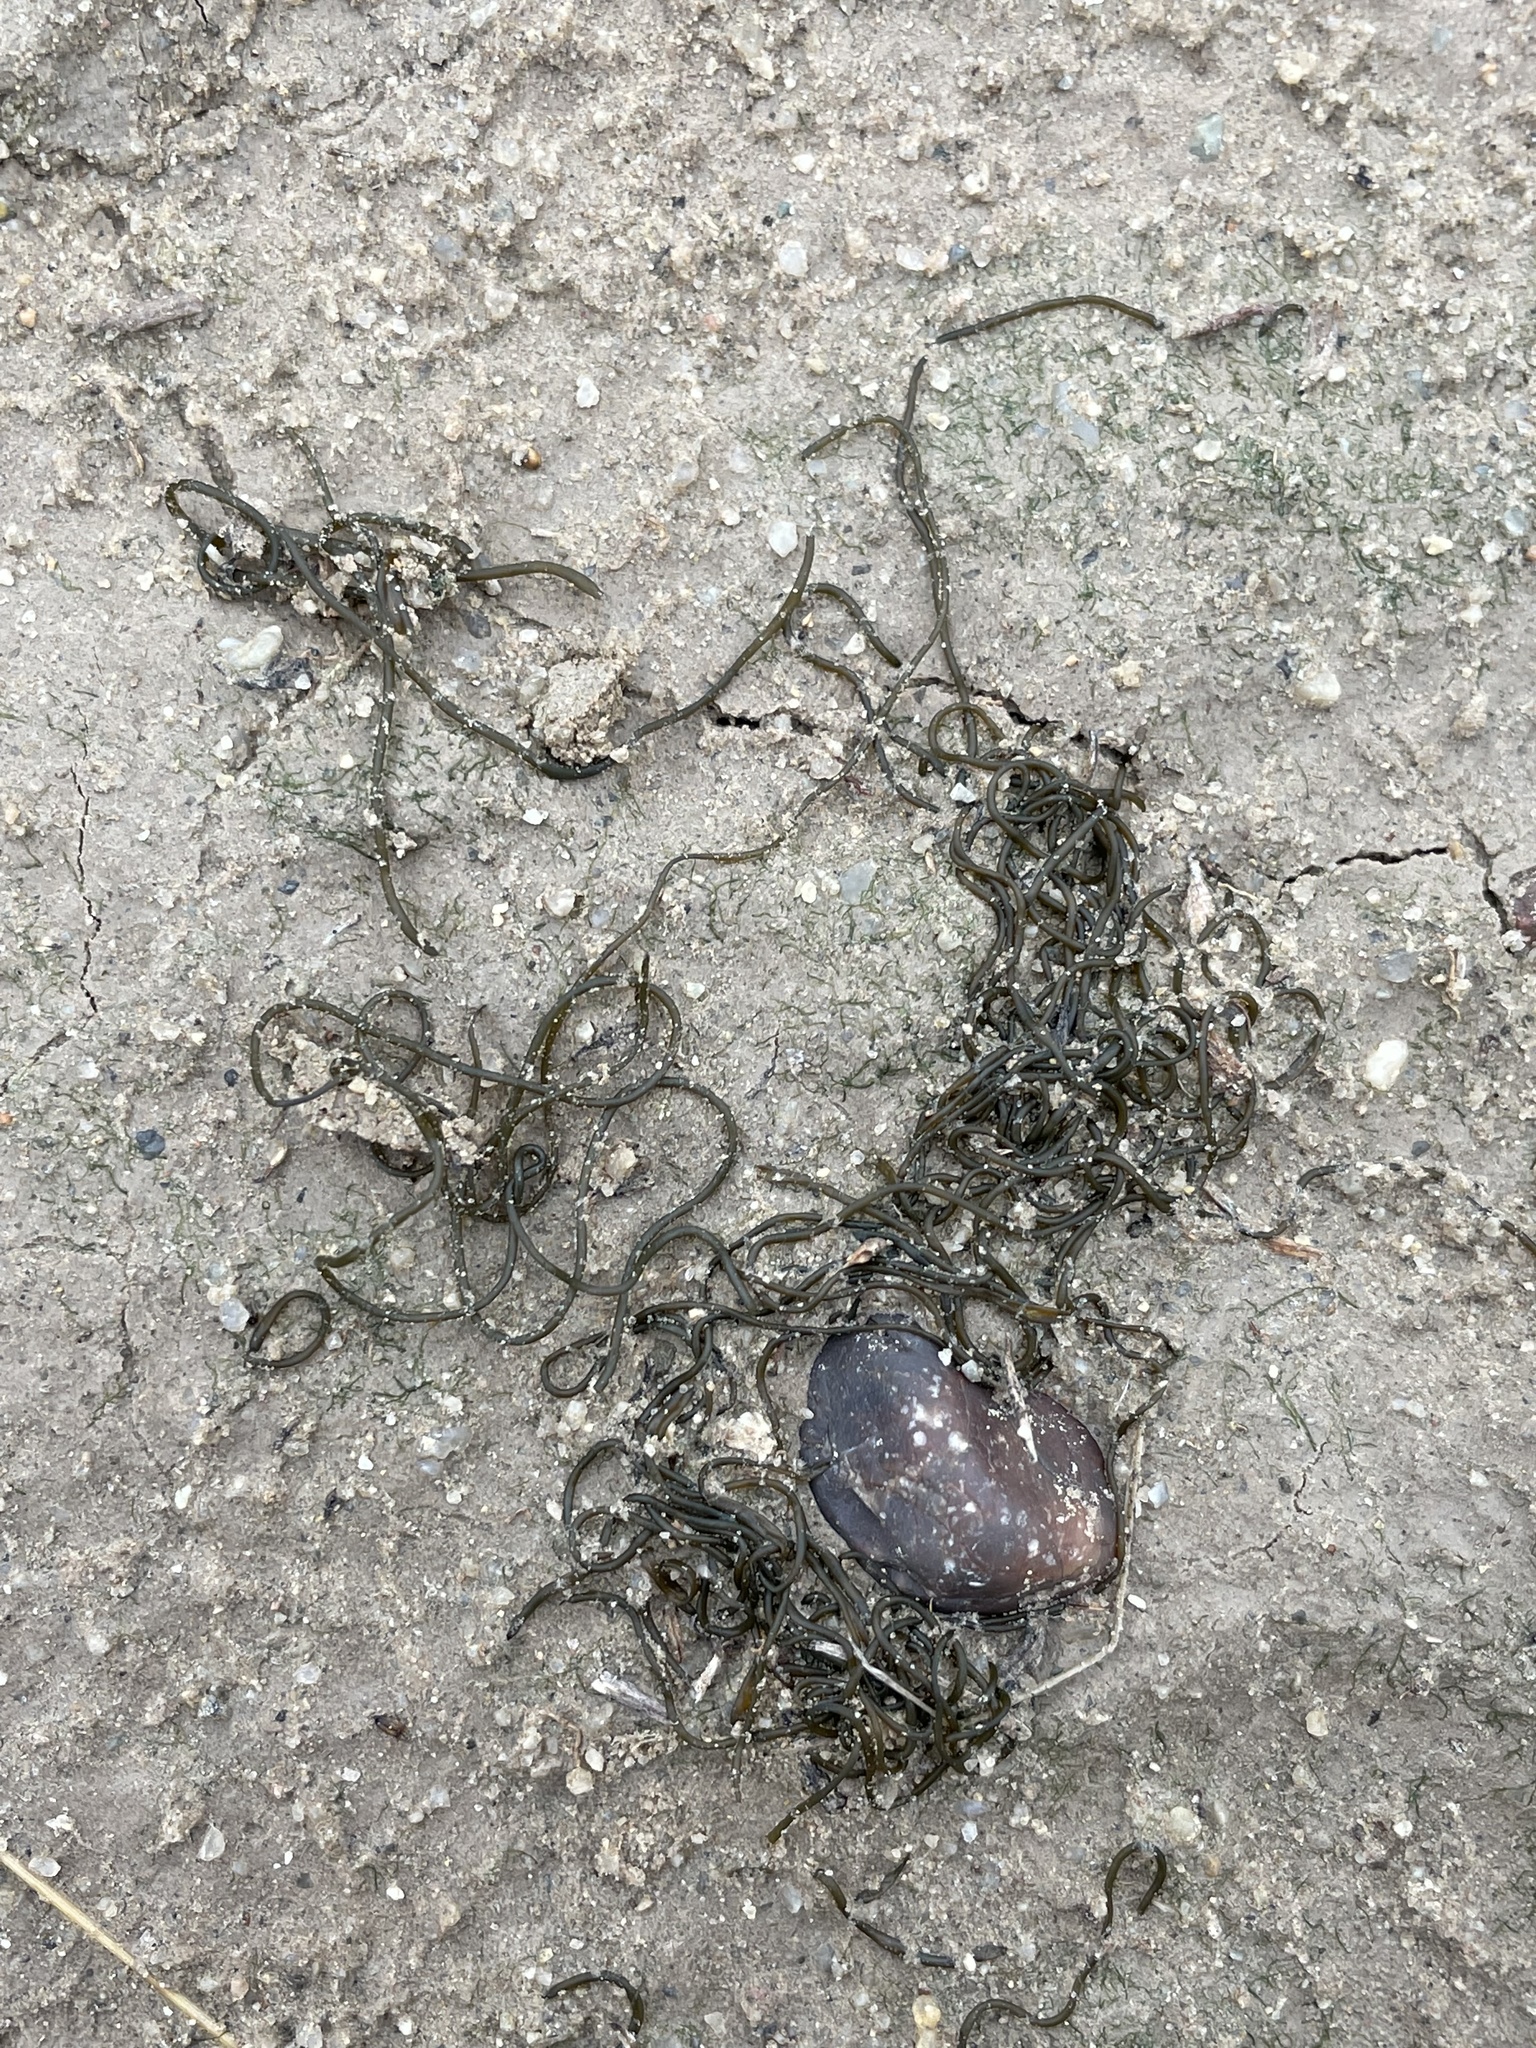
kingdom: Bacteria
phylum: Cyanobacteria
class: Cyanobacteriia
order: Cyanobacteriales
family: Nostocaceae
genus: Nostoc
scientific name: Nostoc flagelliforme
